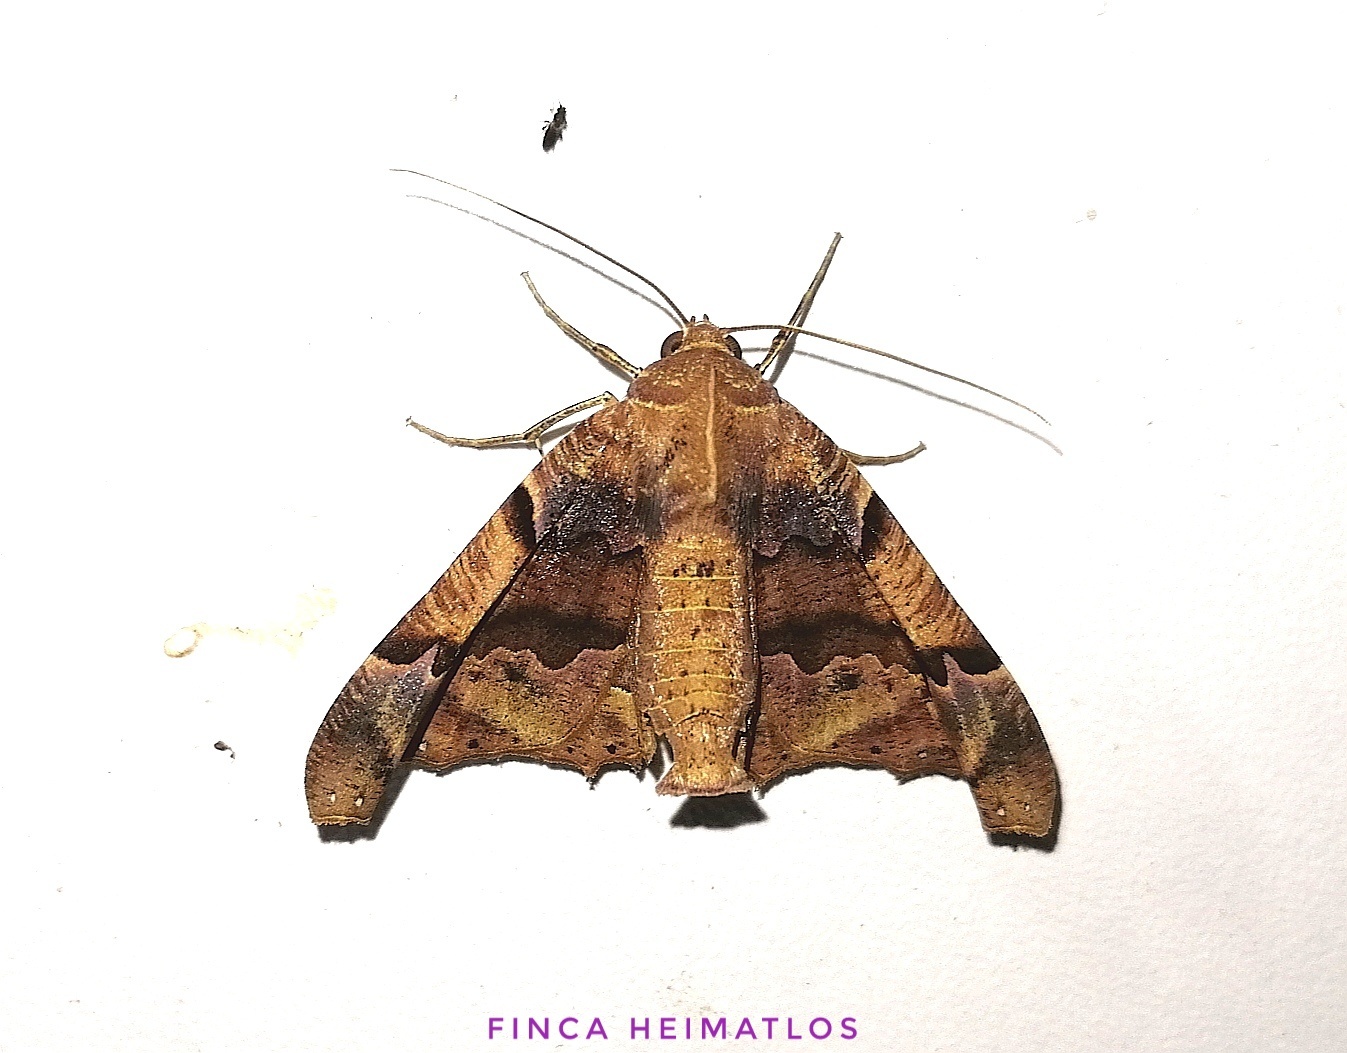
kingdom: Animalia
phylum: Arthropoda
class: Insecta
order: Lepidoptera
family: Geometridae
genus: Pero
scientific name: Pero dularia
